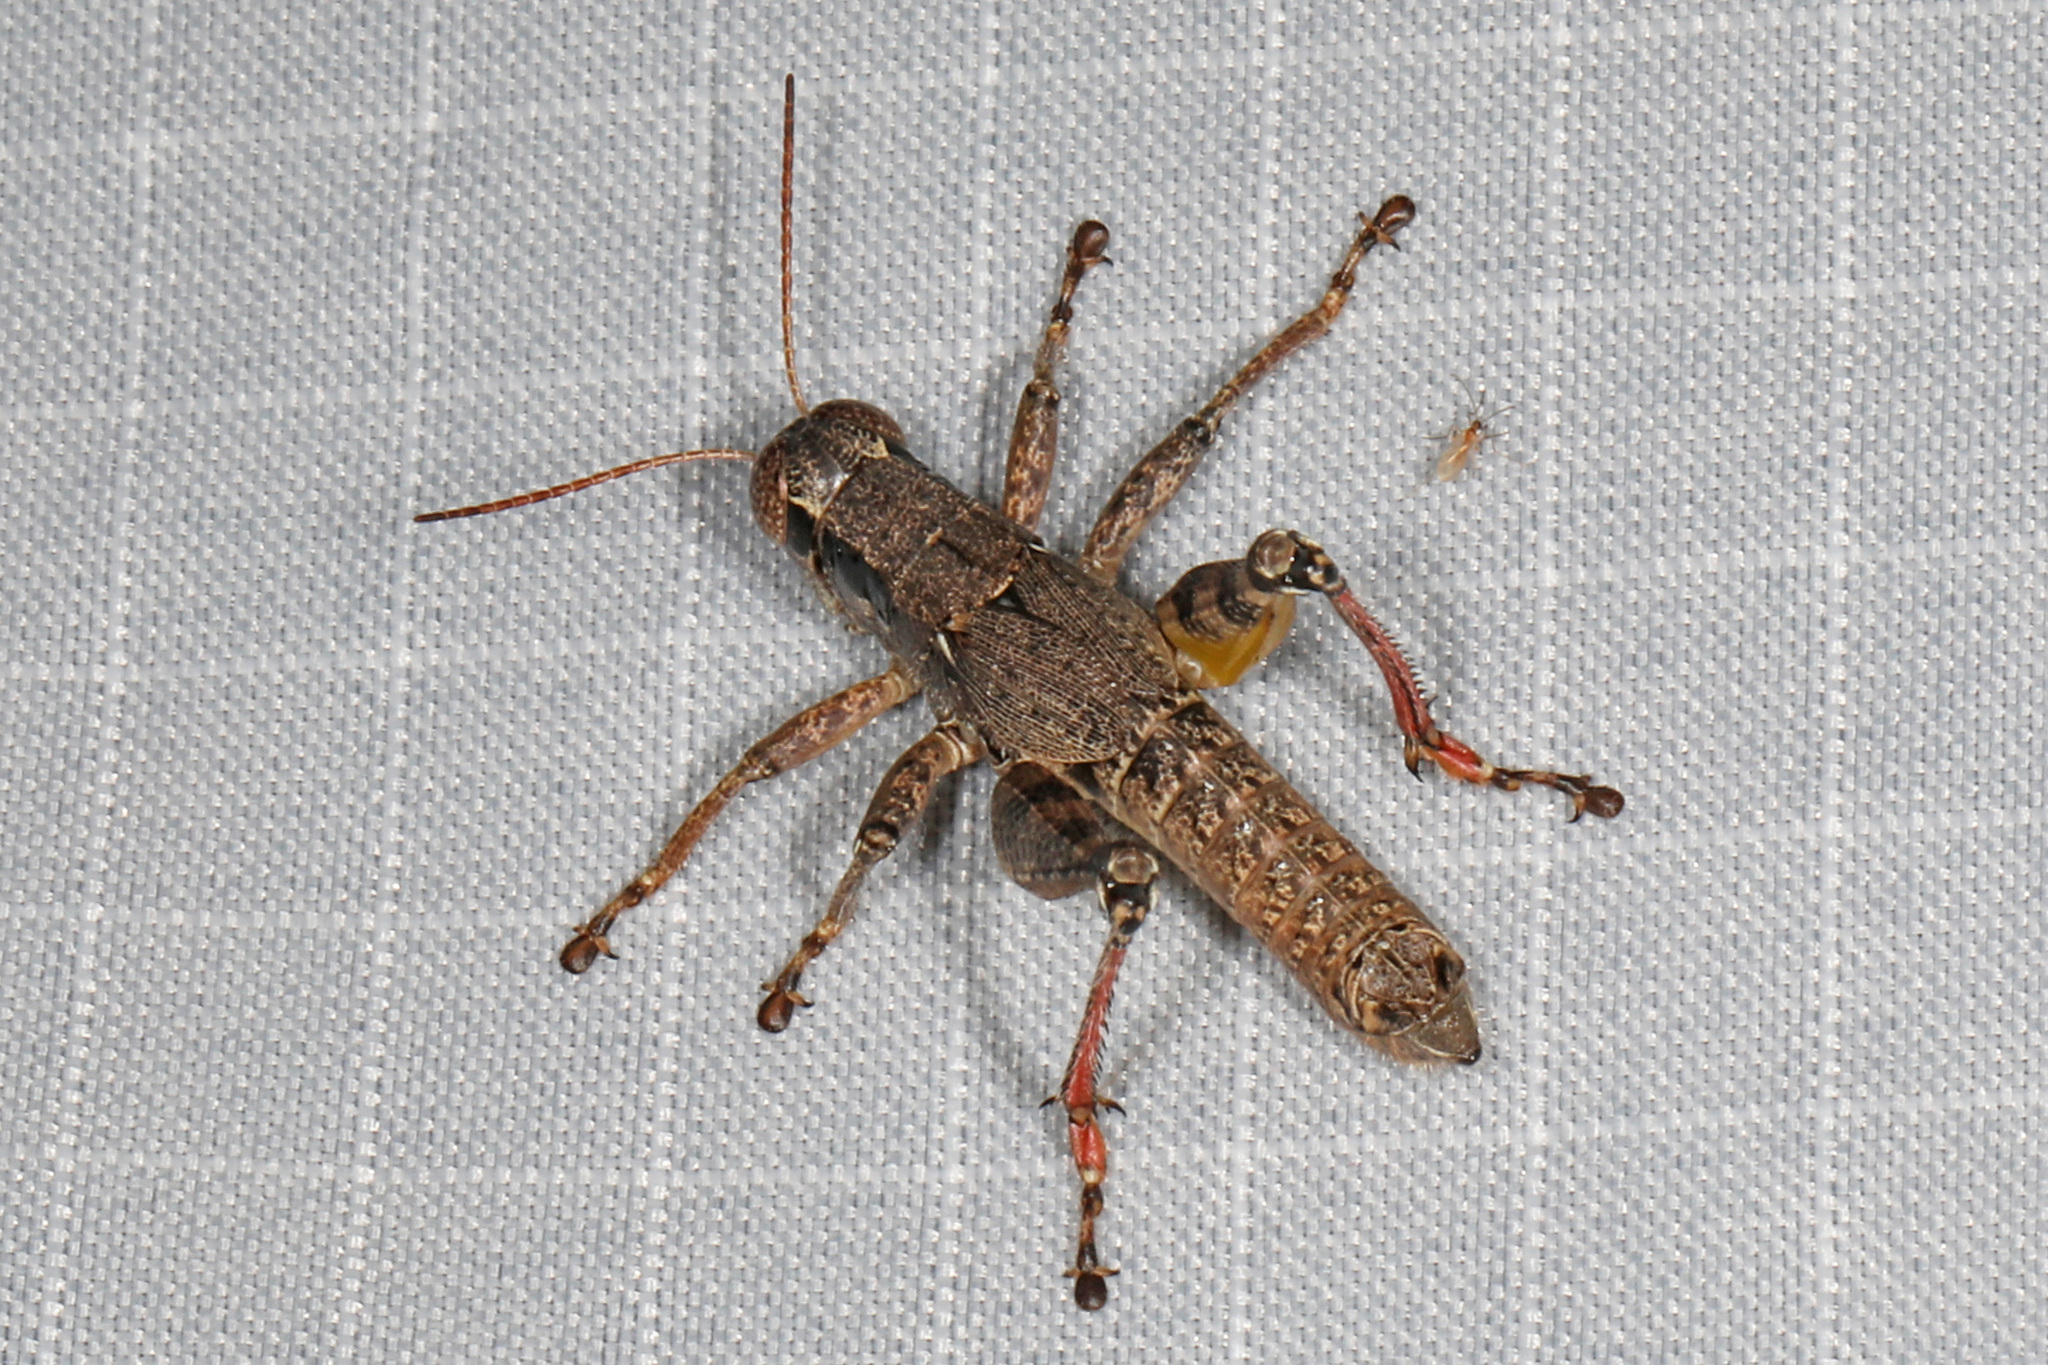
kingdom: Animalia
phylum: Arthropoda
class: Insecta
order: Orthoptera
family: Acrididae
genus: Melanoplus
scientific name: Melanoplus scudderi
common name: Scudder's short-winged locust
